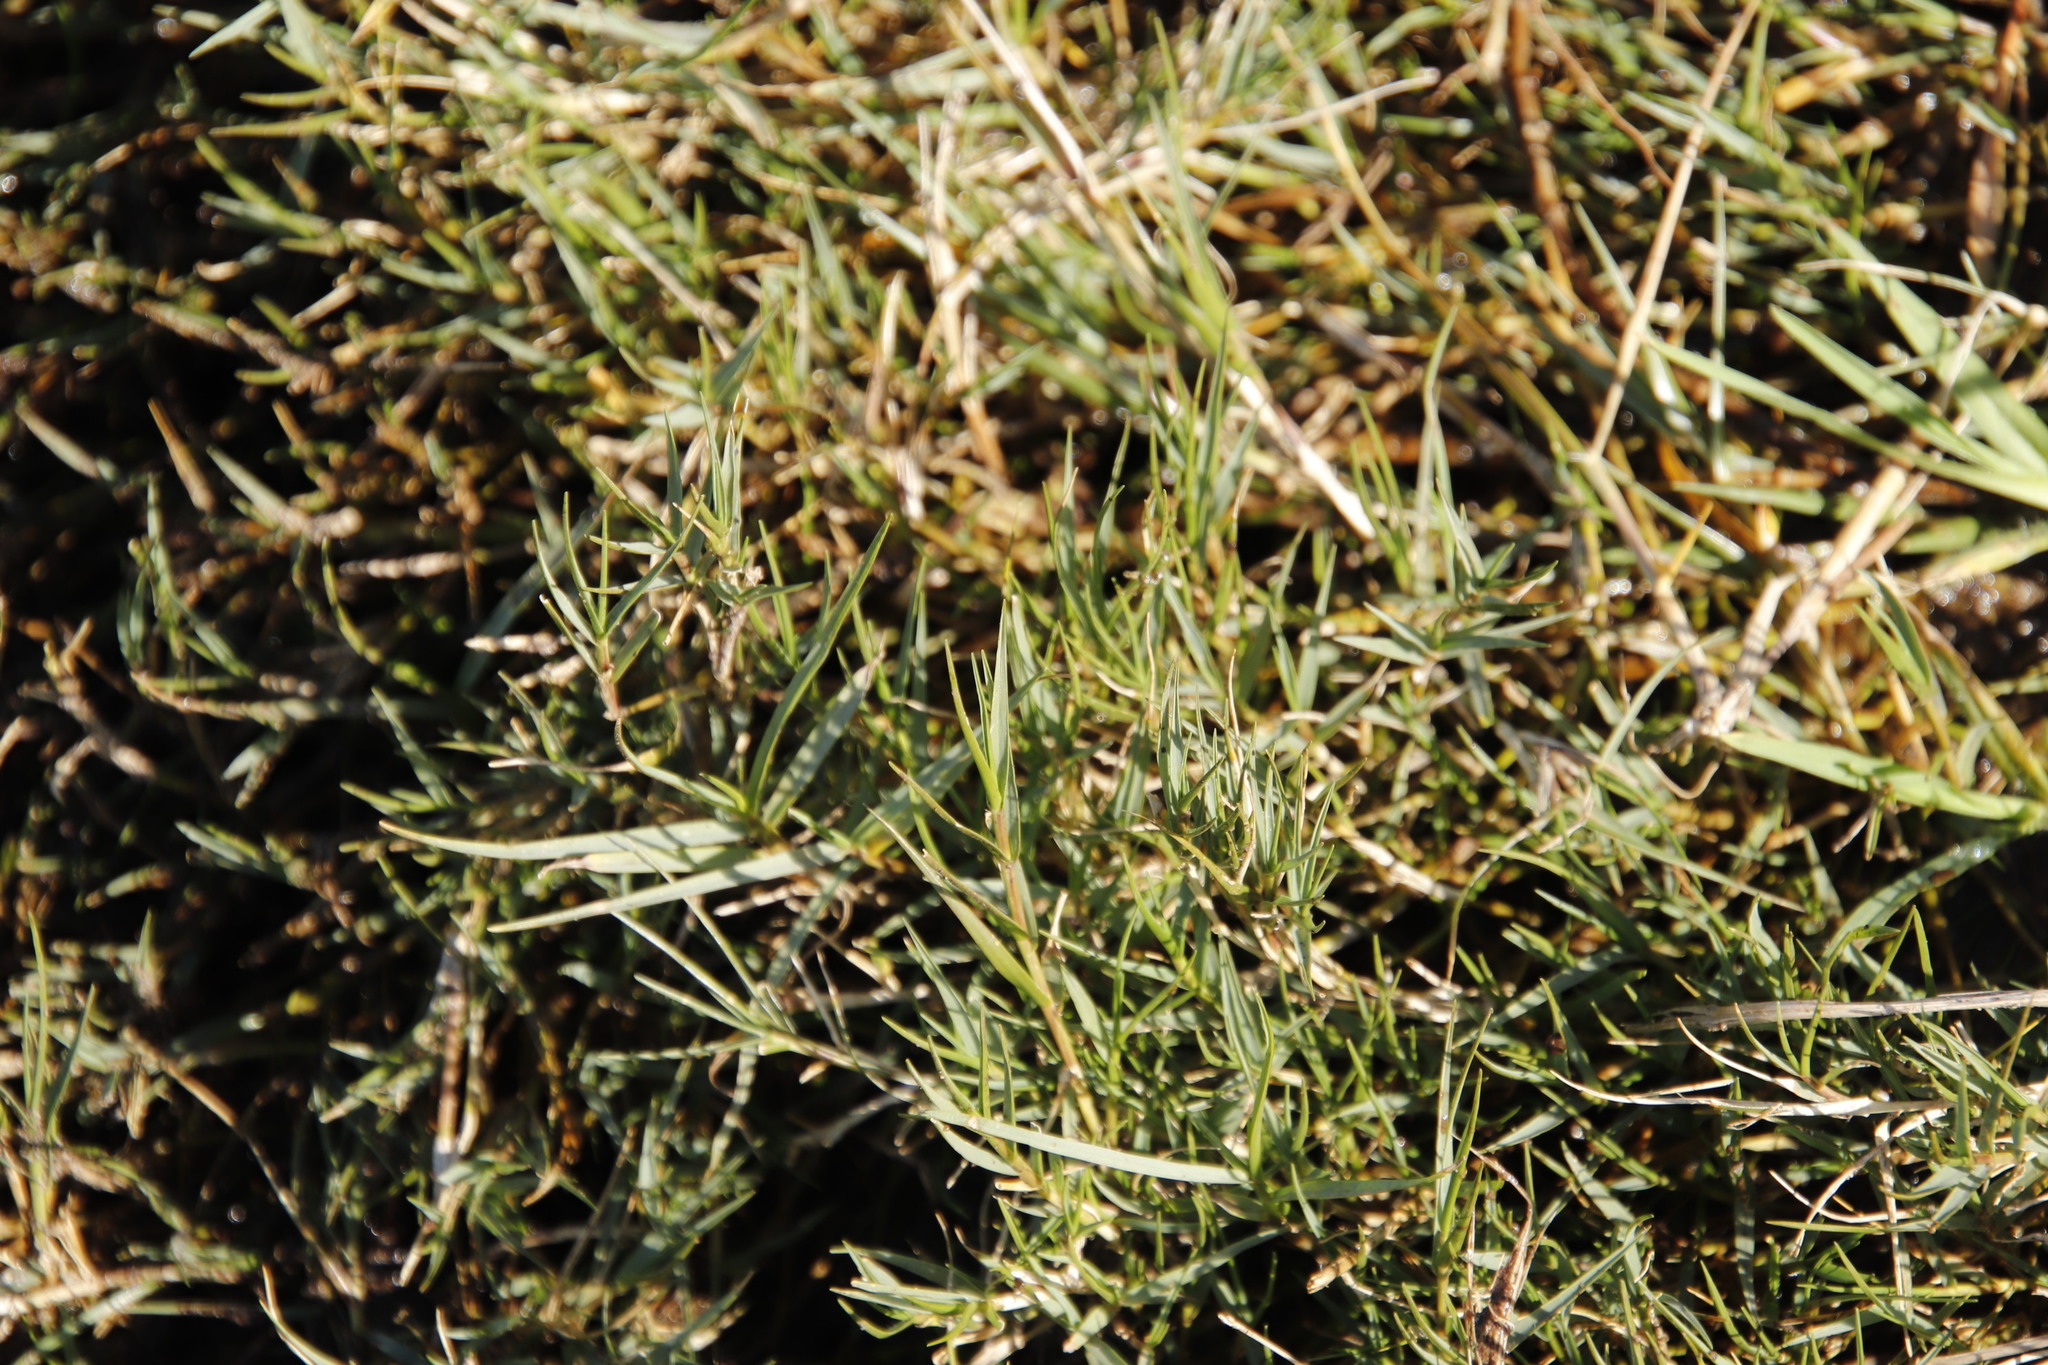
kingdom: Plantae
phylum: Tracheophyta
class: Liliopsida
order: Poales
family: Poaceae
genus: Cynodon
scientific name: Cynodon dactylon
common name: Bermuda grass
